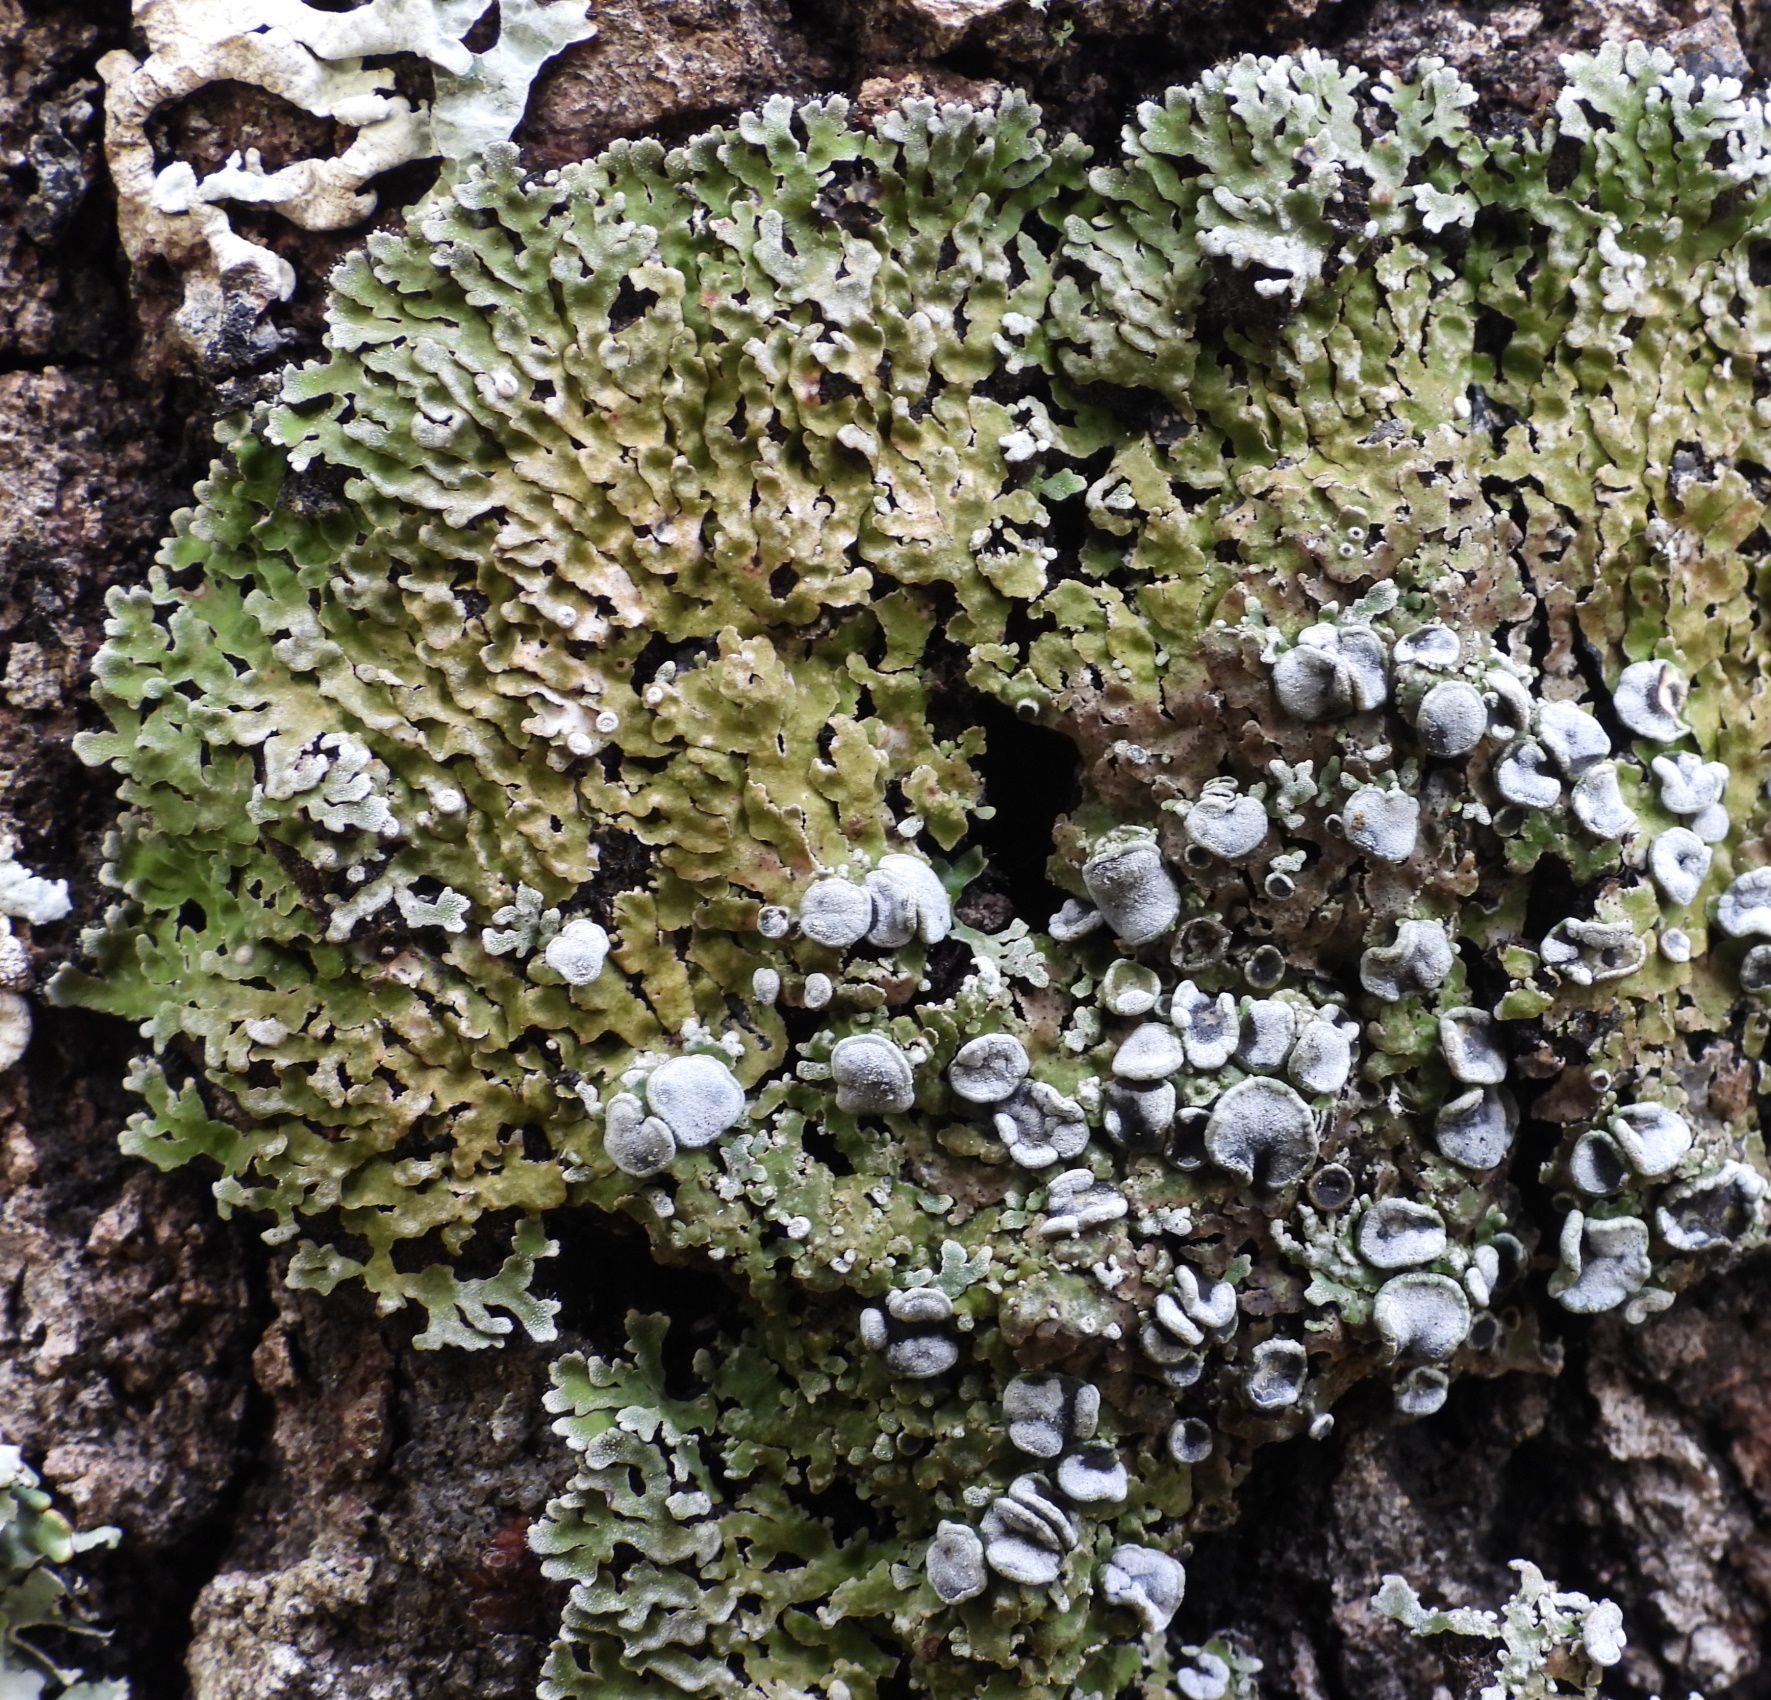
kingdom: Fungi
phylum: Ascomycota
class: Lecanoromycetes
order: Caliciales
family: Physciaceae
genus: Physconia
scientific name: Physconia distorta
